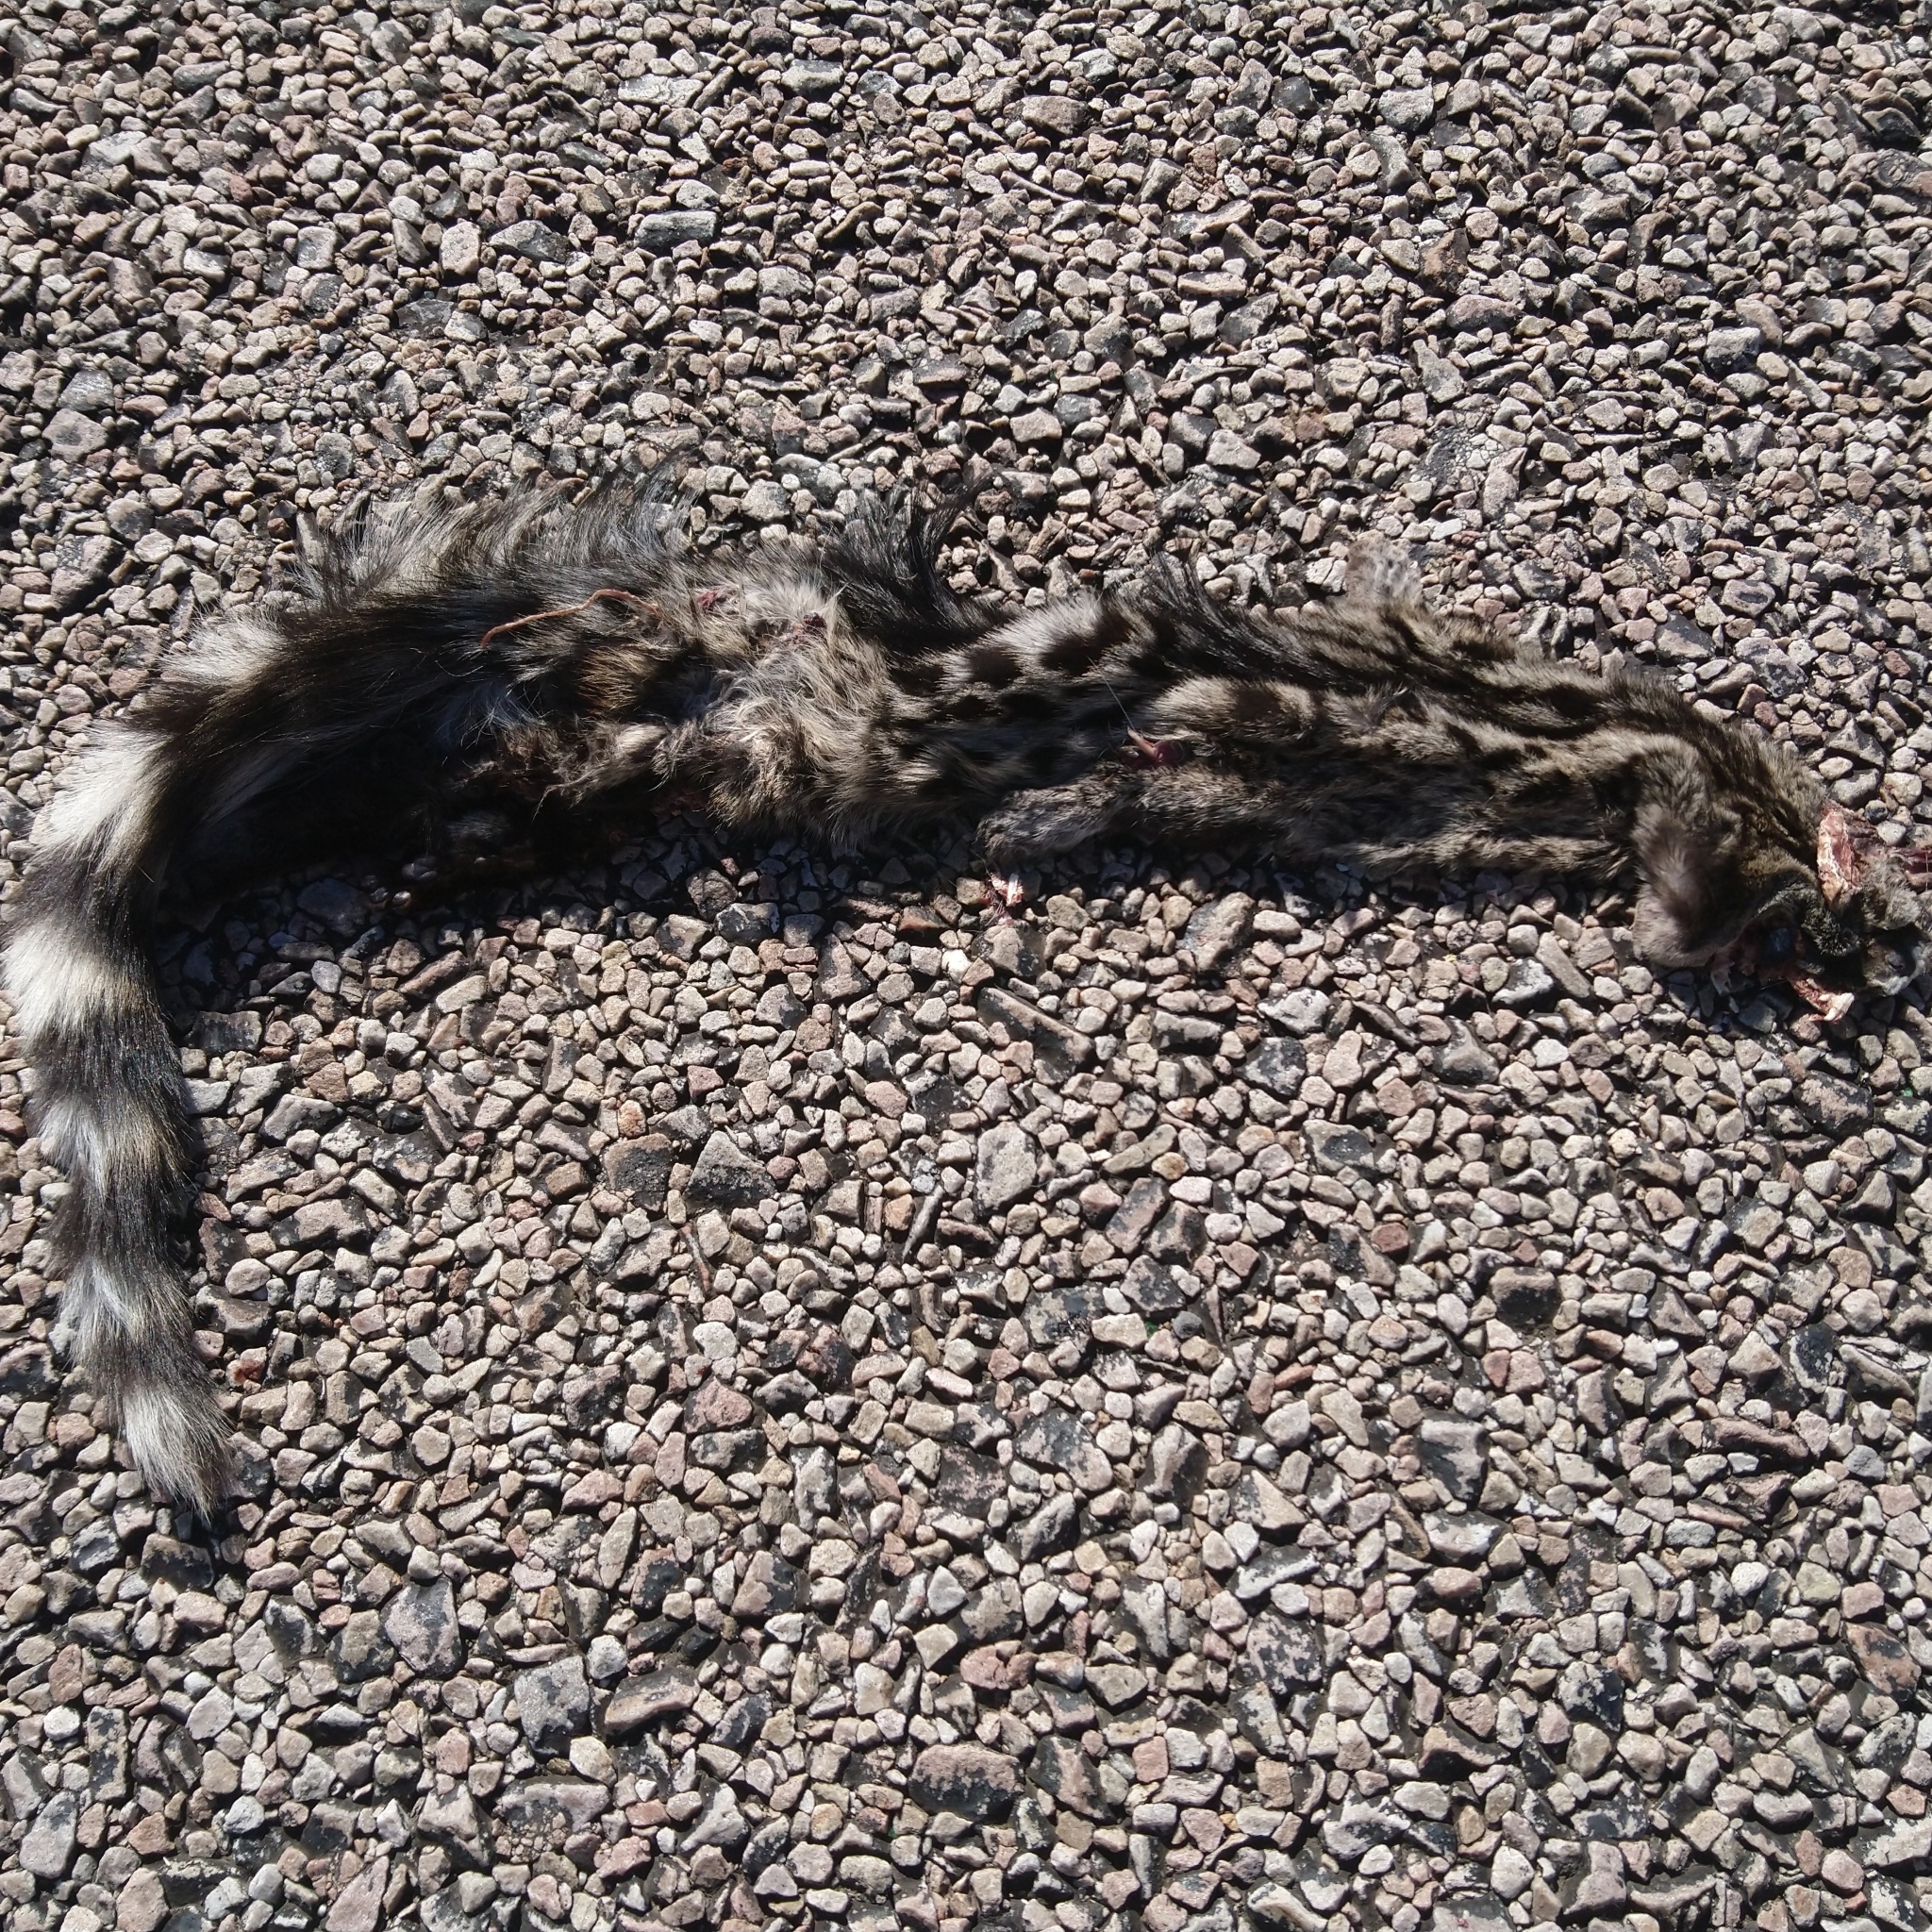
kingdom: Animalia
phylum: Chordata
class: Mammalia
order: Carnivora
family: Viverridae
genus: Genetta
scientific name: Genetta genetta
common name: Common genet
